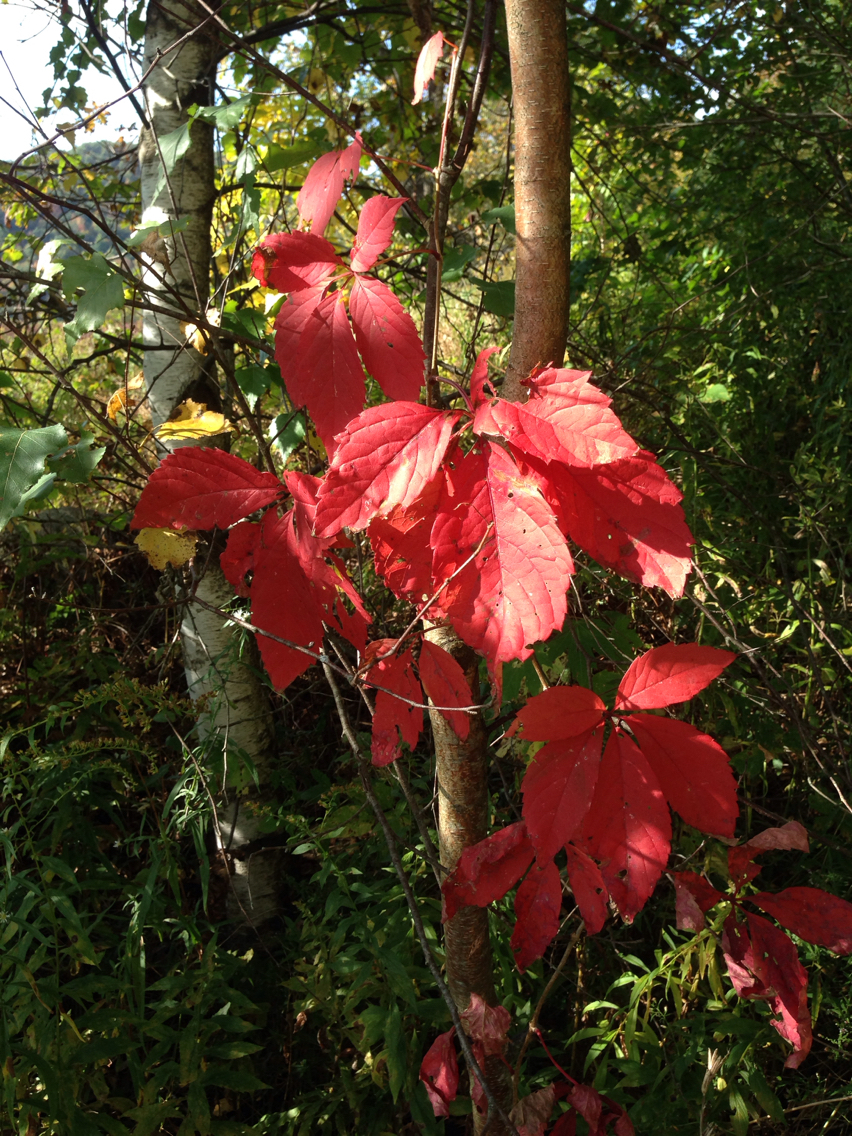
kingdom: Plantae
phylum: Tracheophyta
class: Magnoliopsida
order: Vitales
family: Vitaceae
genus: Parthenocissus
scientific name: Parthenocissus quinquefolia
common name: Virginia-creeper
